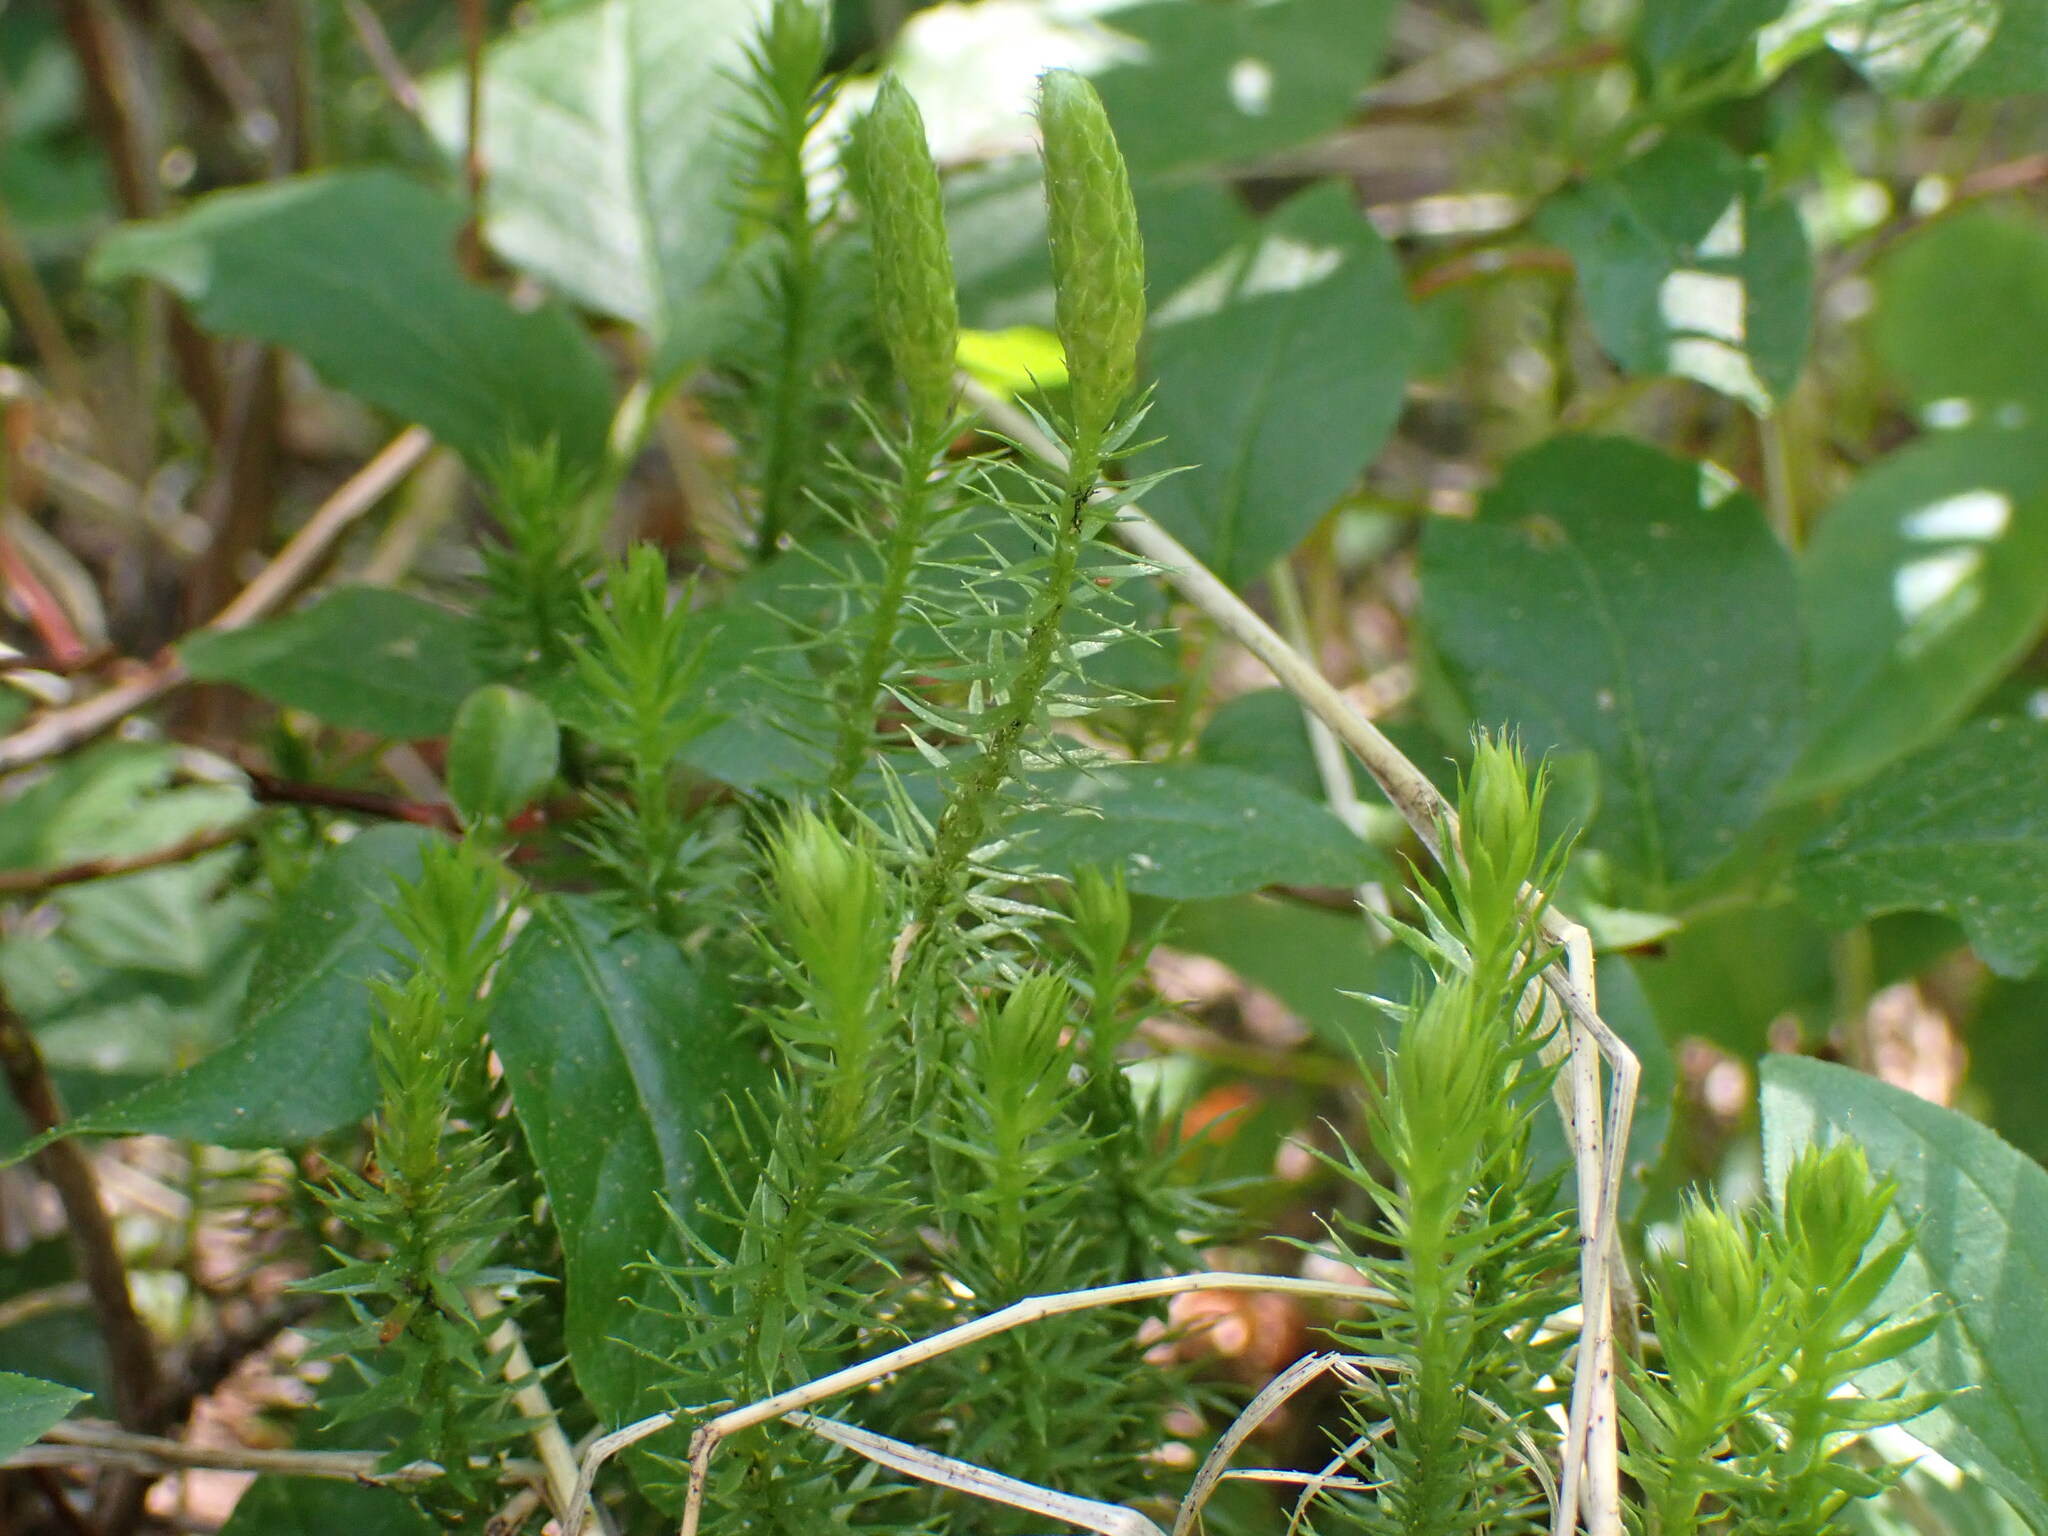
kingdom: Plantae
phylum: Tracheophyta
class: Lycopodiopsida
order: Lycopodiales
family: Lycopodiaceae
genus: Spinulum
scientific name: Spinulum annotinum
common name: Interrupted club-moss
